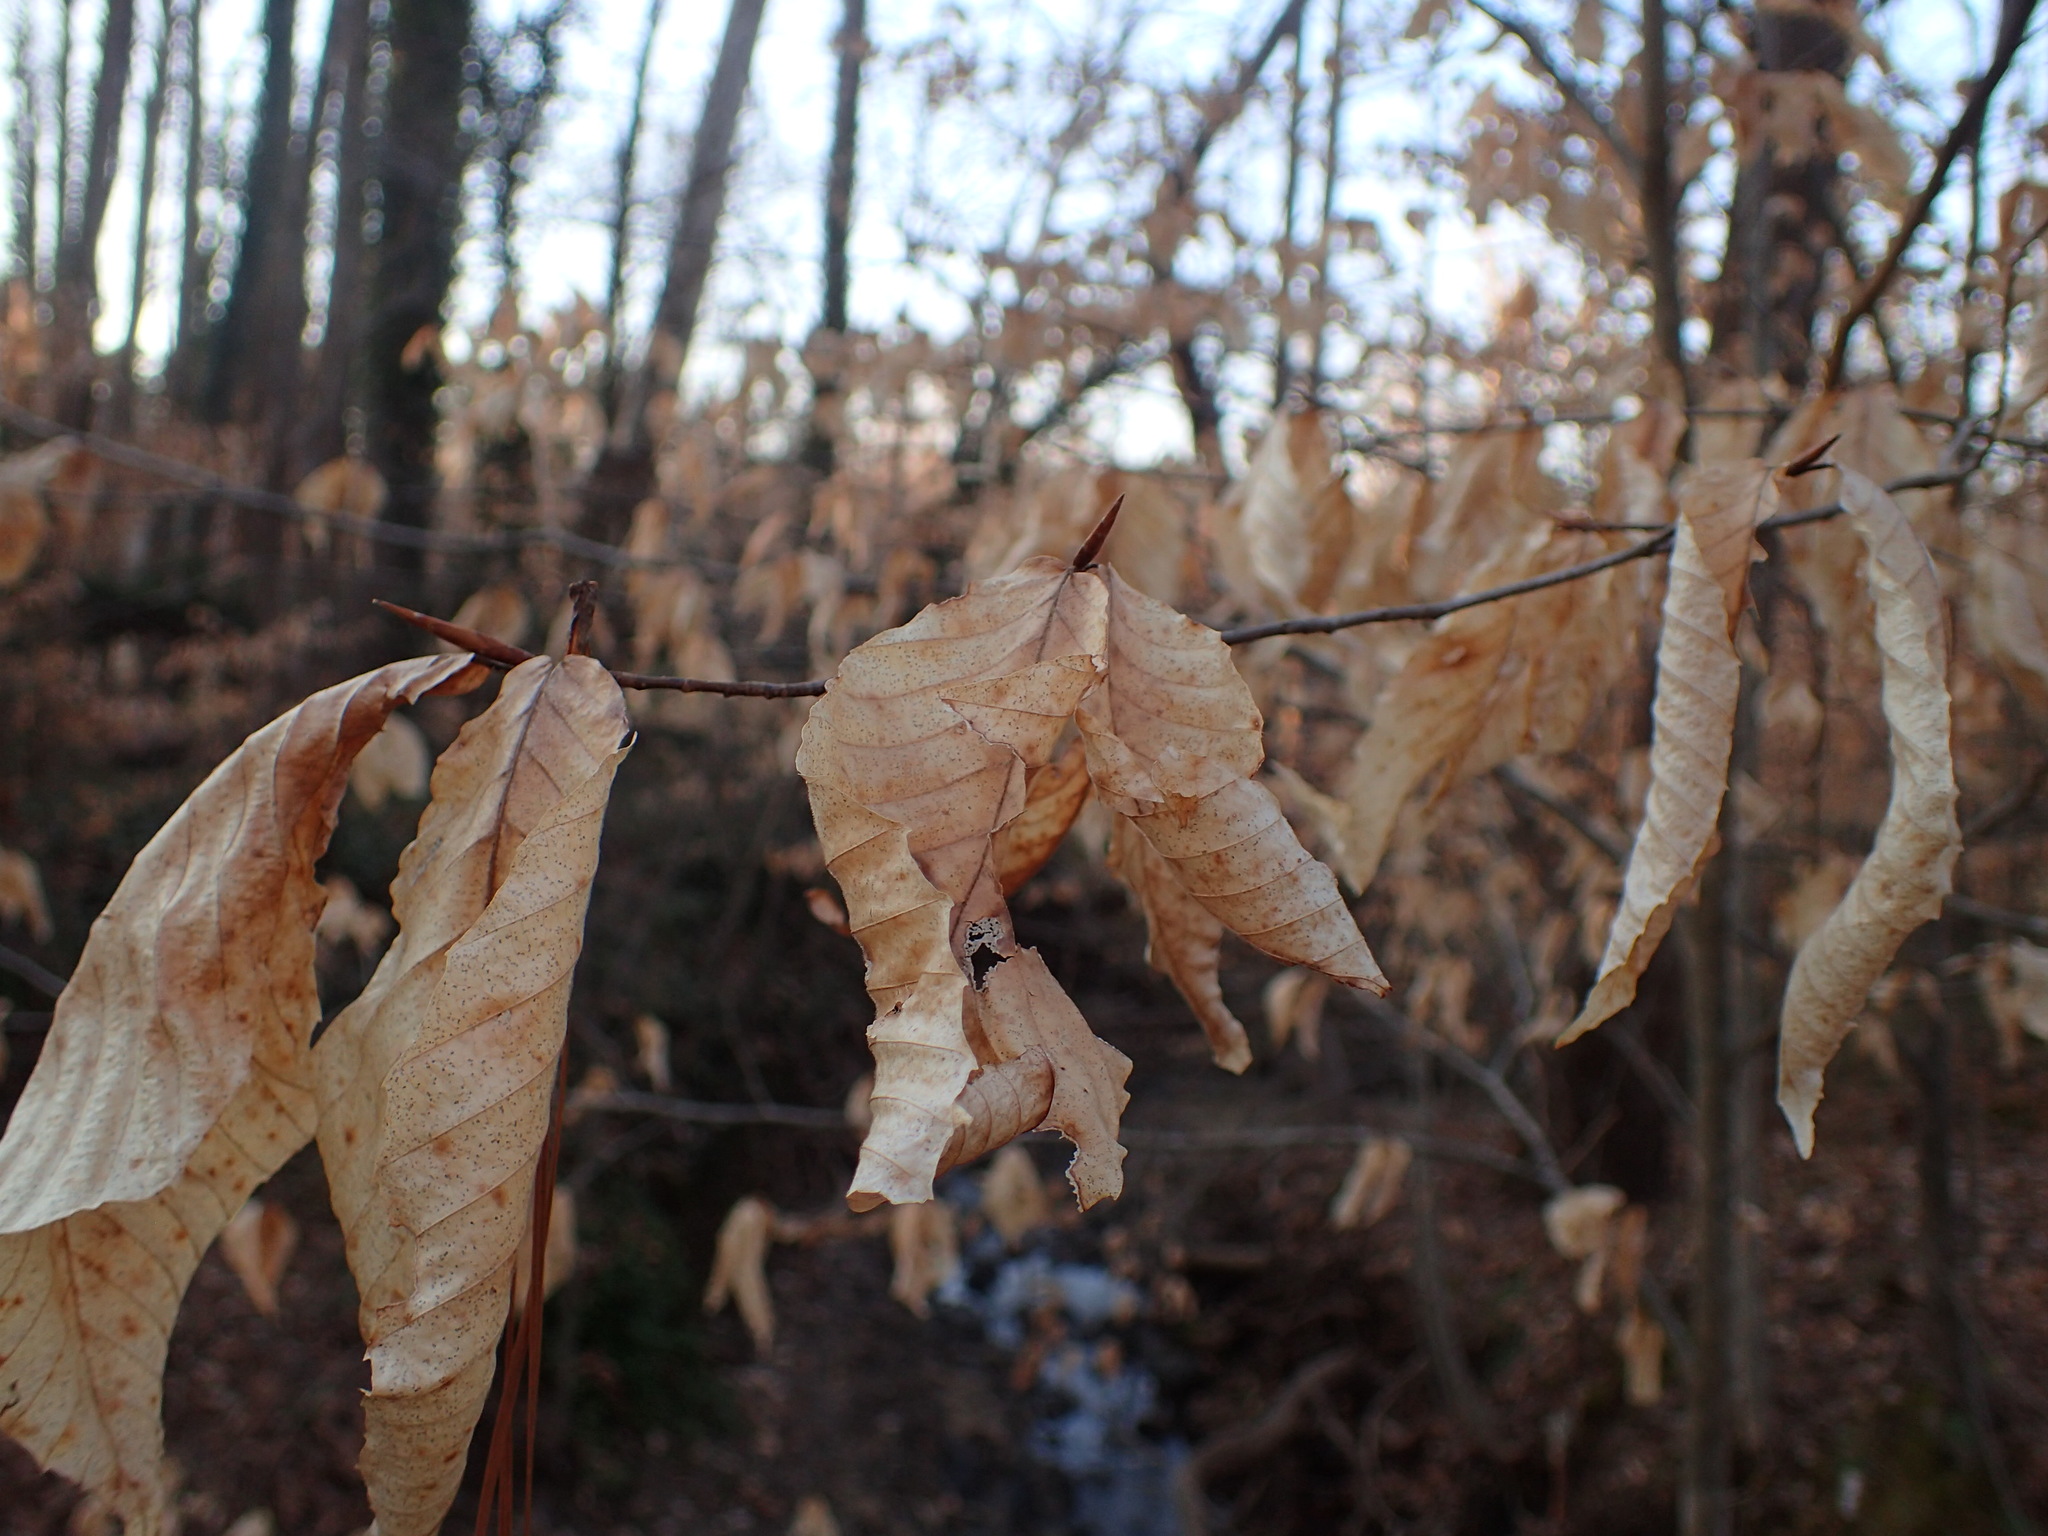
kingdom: Plantae
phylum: Tracheophyta
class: Magnoliopsida
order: Fagales
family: Fagaceae
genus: Fagus
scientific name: Fagus grandifolia
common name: American beech
